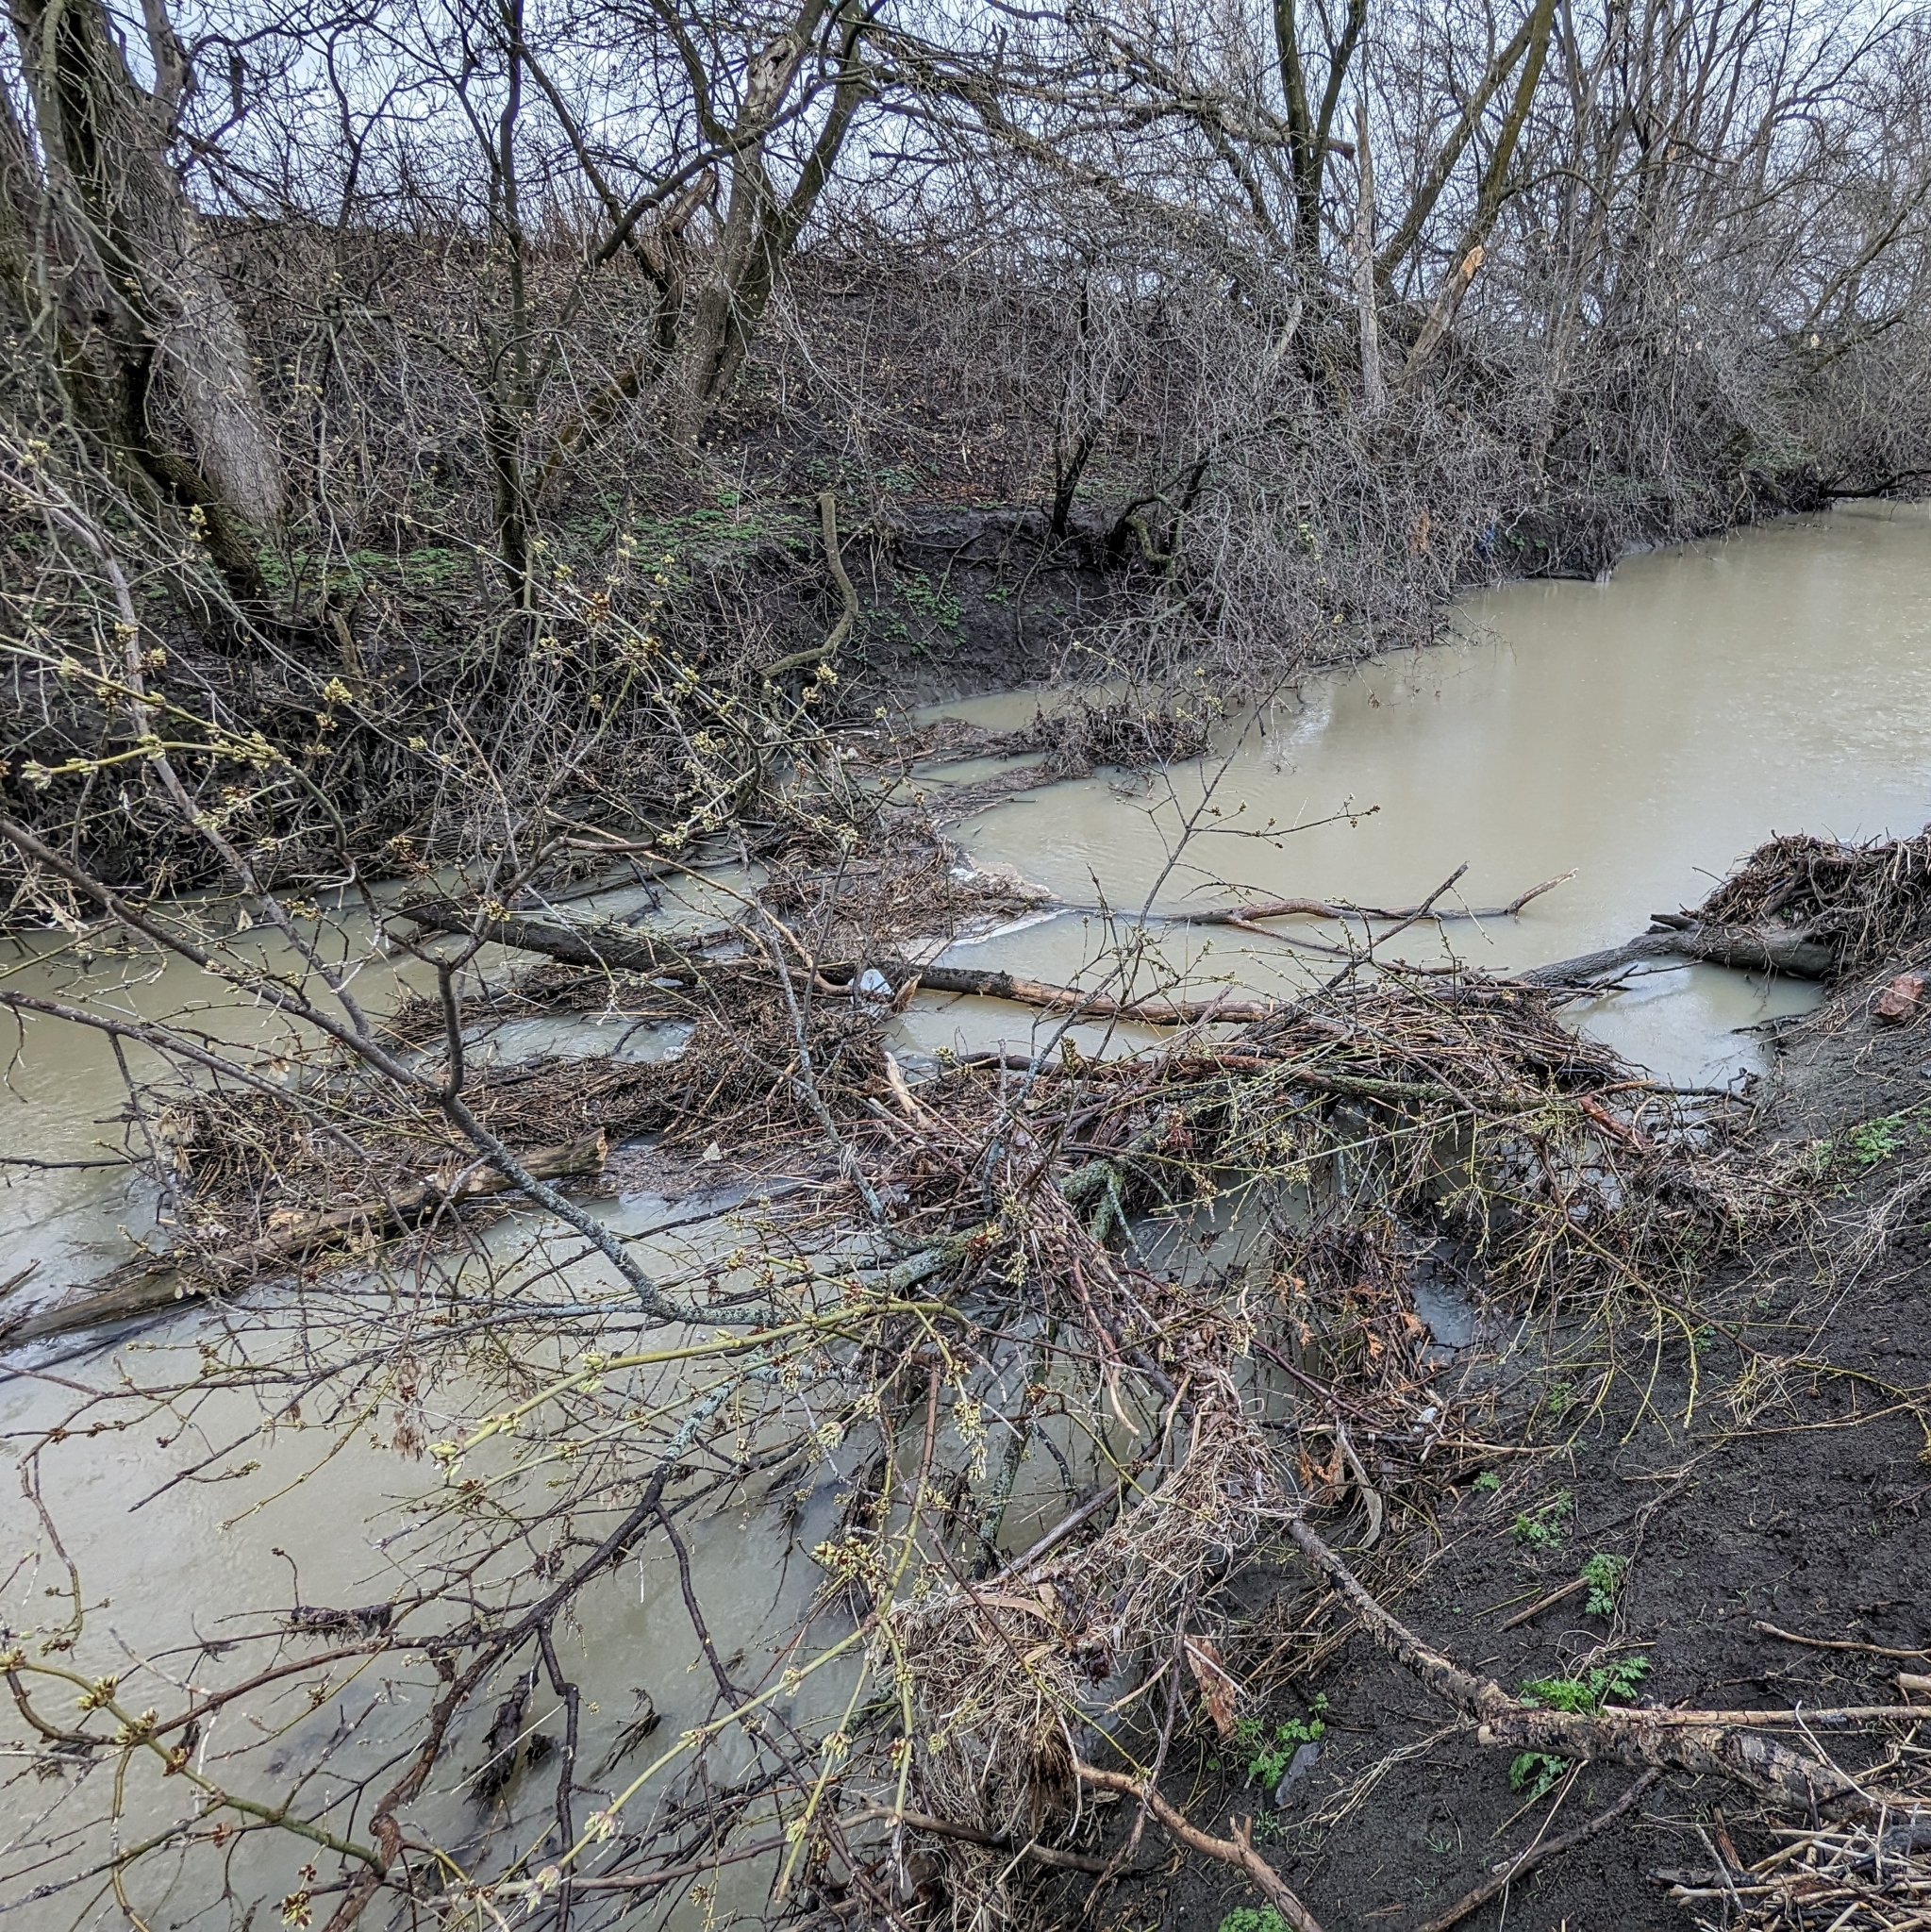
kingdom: Plantae
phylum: Tracheophyta
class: Magnoliopsida
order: Sapindales
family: Sapindaceae
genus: Acer
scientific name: Acer negundo
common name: Ashleaf maple
